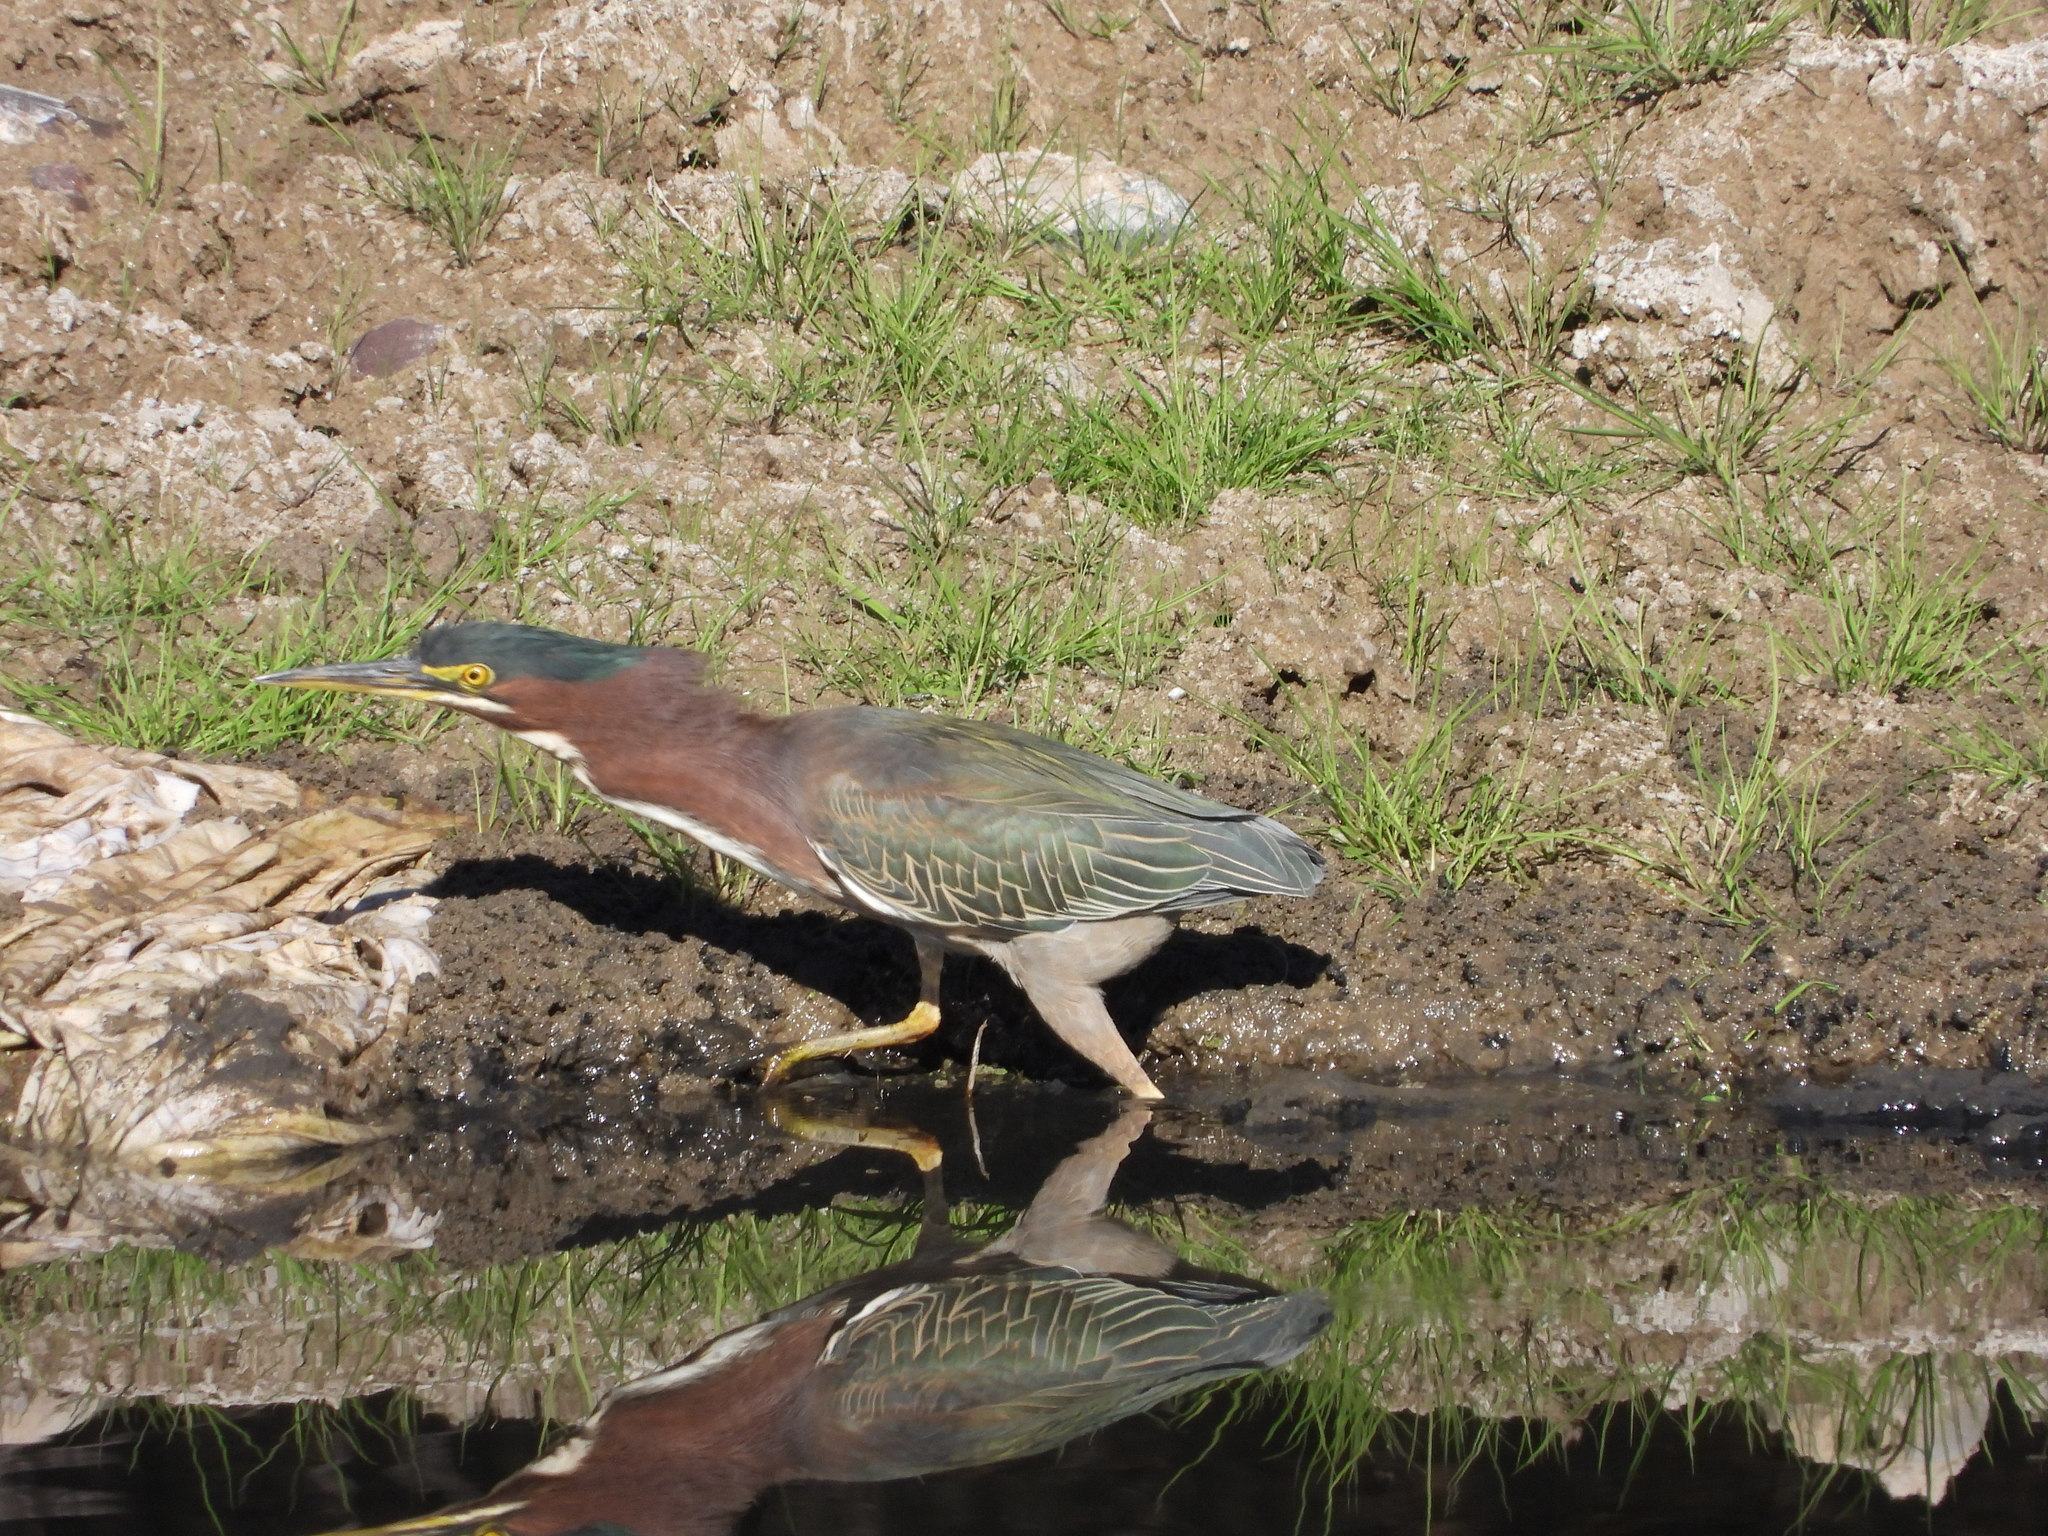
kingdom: Animalia
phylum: Chordata
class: Aves
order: Pelecaniformes
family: Ardeidae
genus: Butorides
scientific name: Butorides virescens
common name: Green heron
